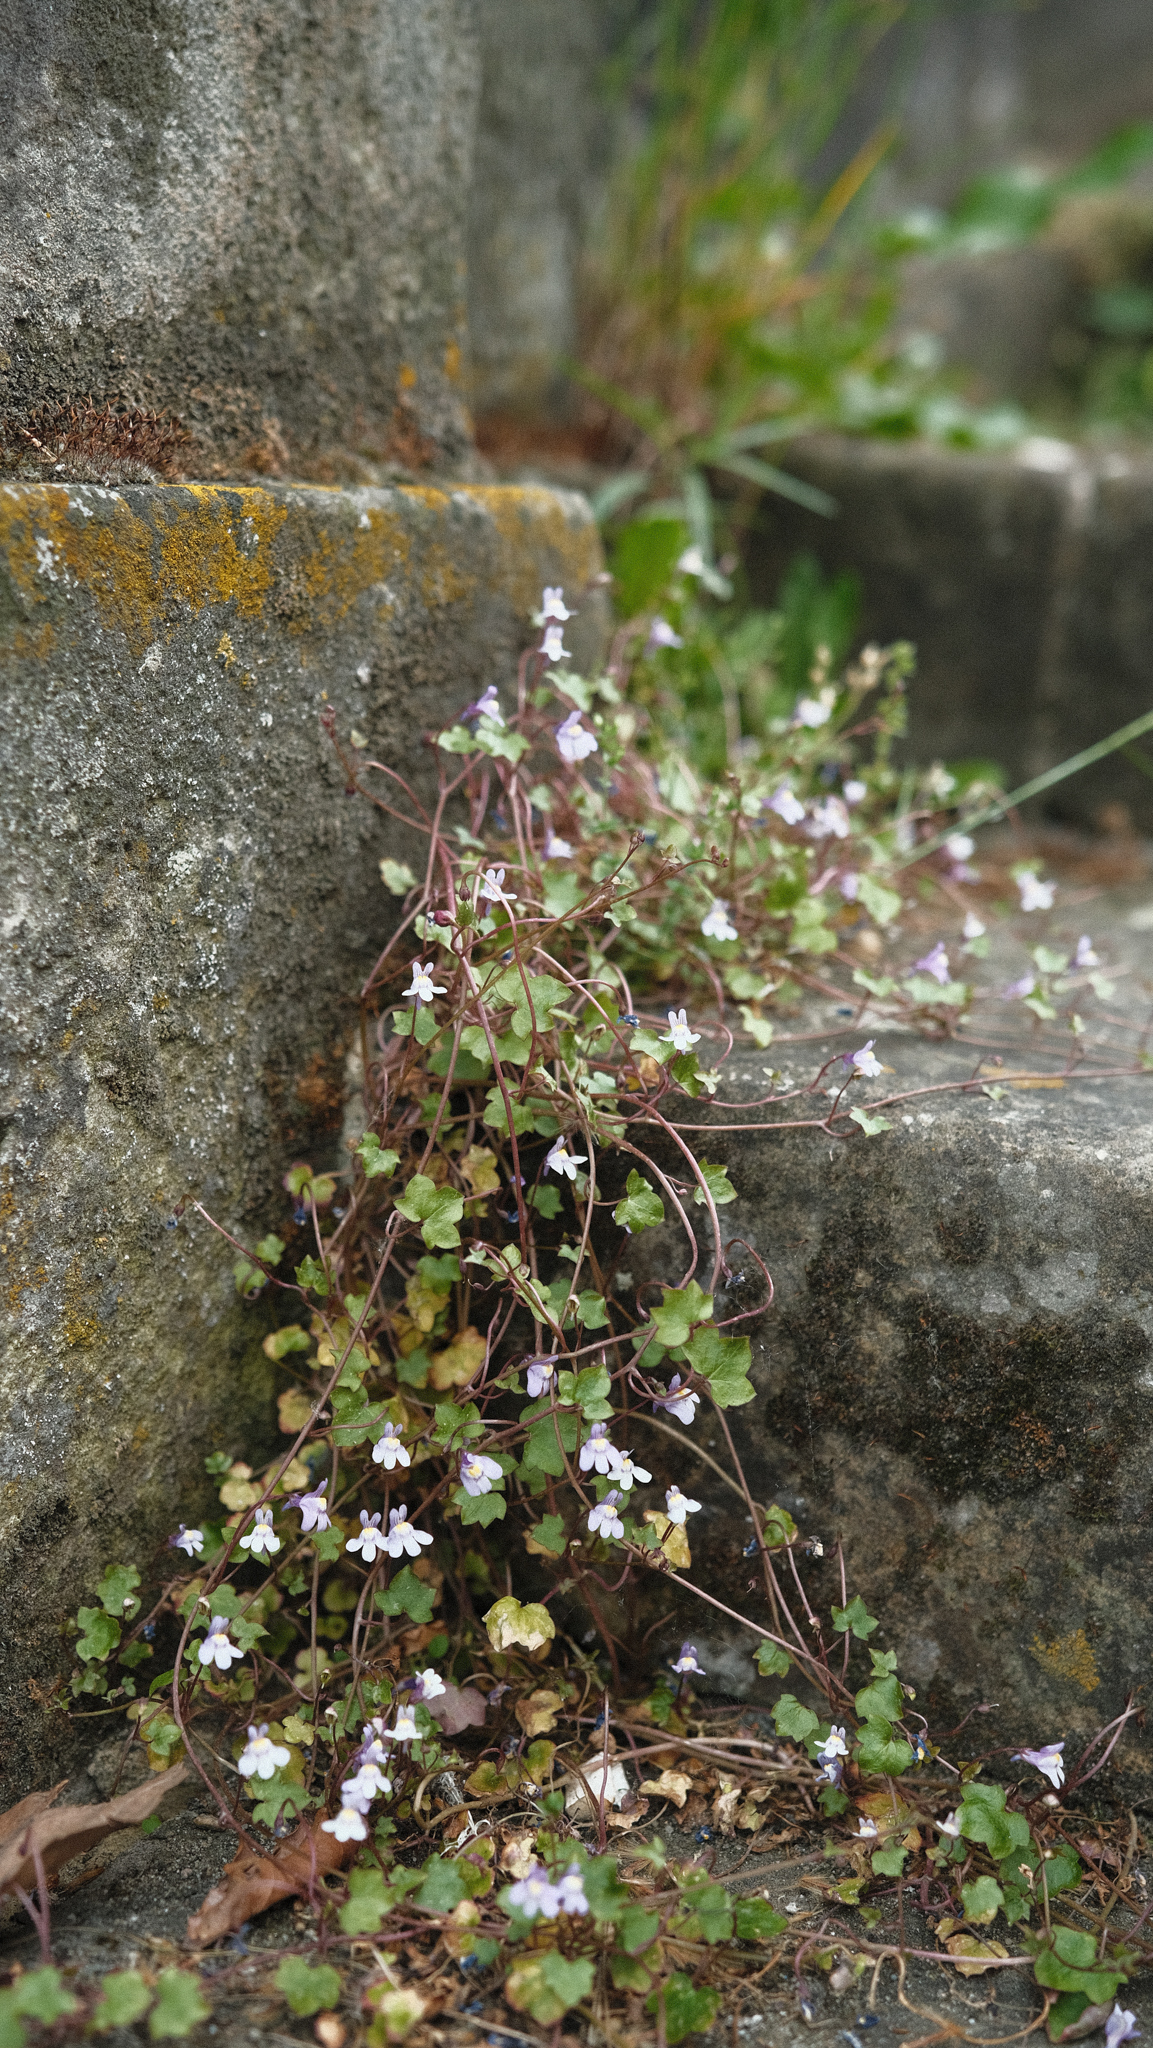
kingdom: Plantae
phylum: Tracheophyta
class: Magnoliopsida
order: Lamiales
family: Plantaginaceae
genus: Cymbalaria
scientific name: Cymbalaria muralis
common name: Ivy-leaved toadflax
